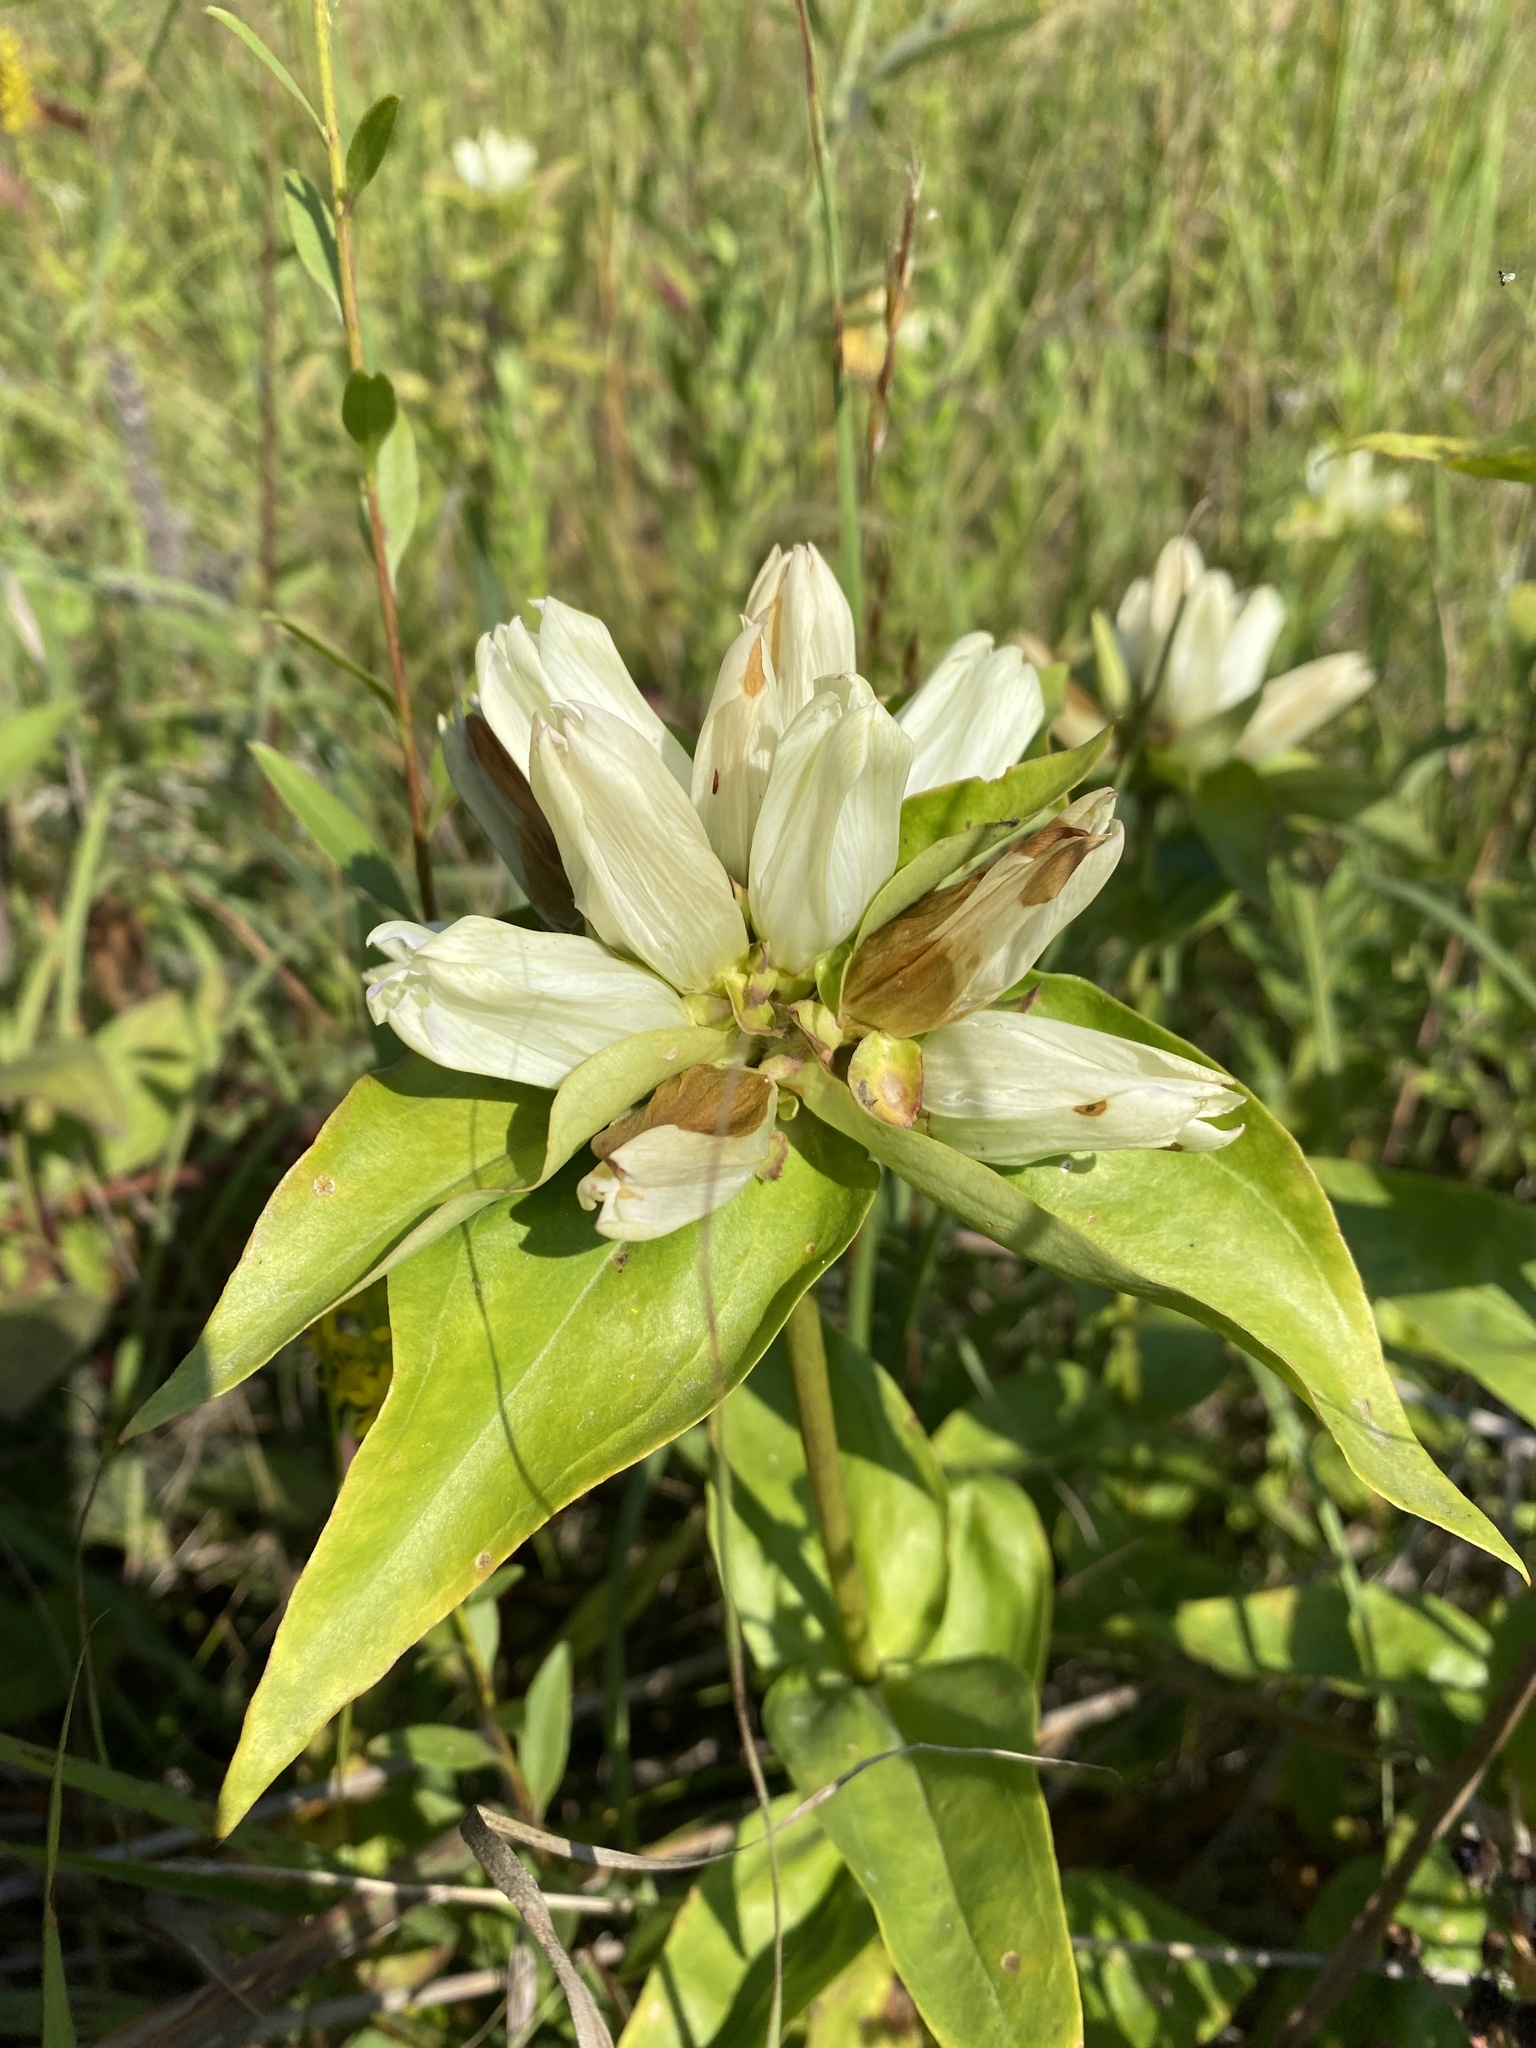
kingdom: Plantae
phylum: Tracheophyta
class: Magnoliopsida
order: Gentianales
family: Gentianaceae
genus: Gentiana
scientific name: Gentiana alba
